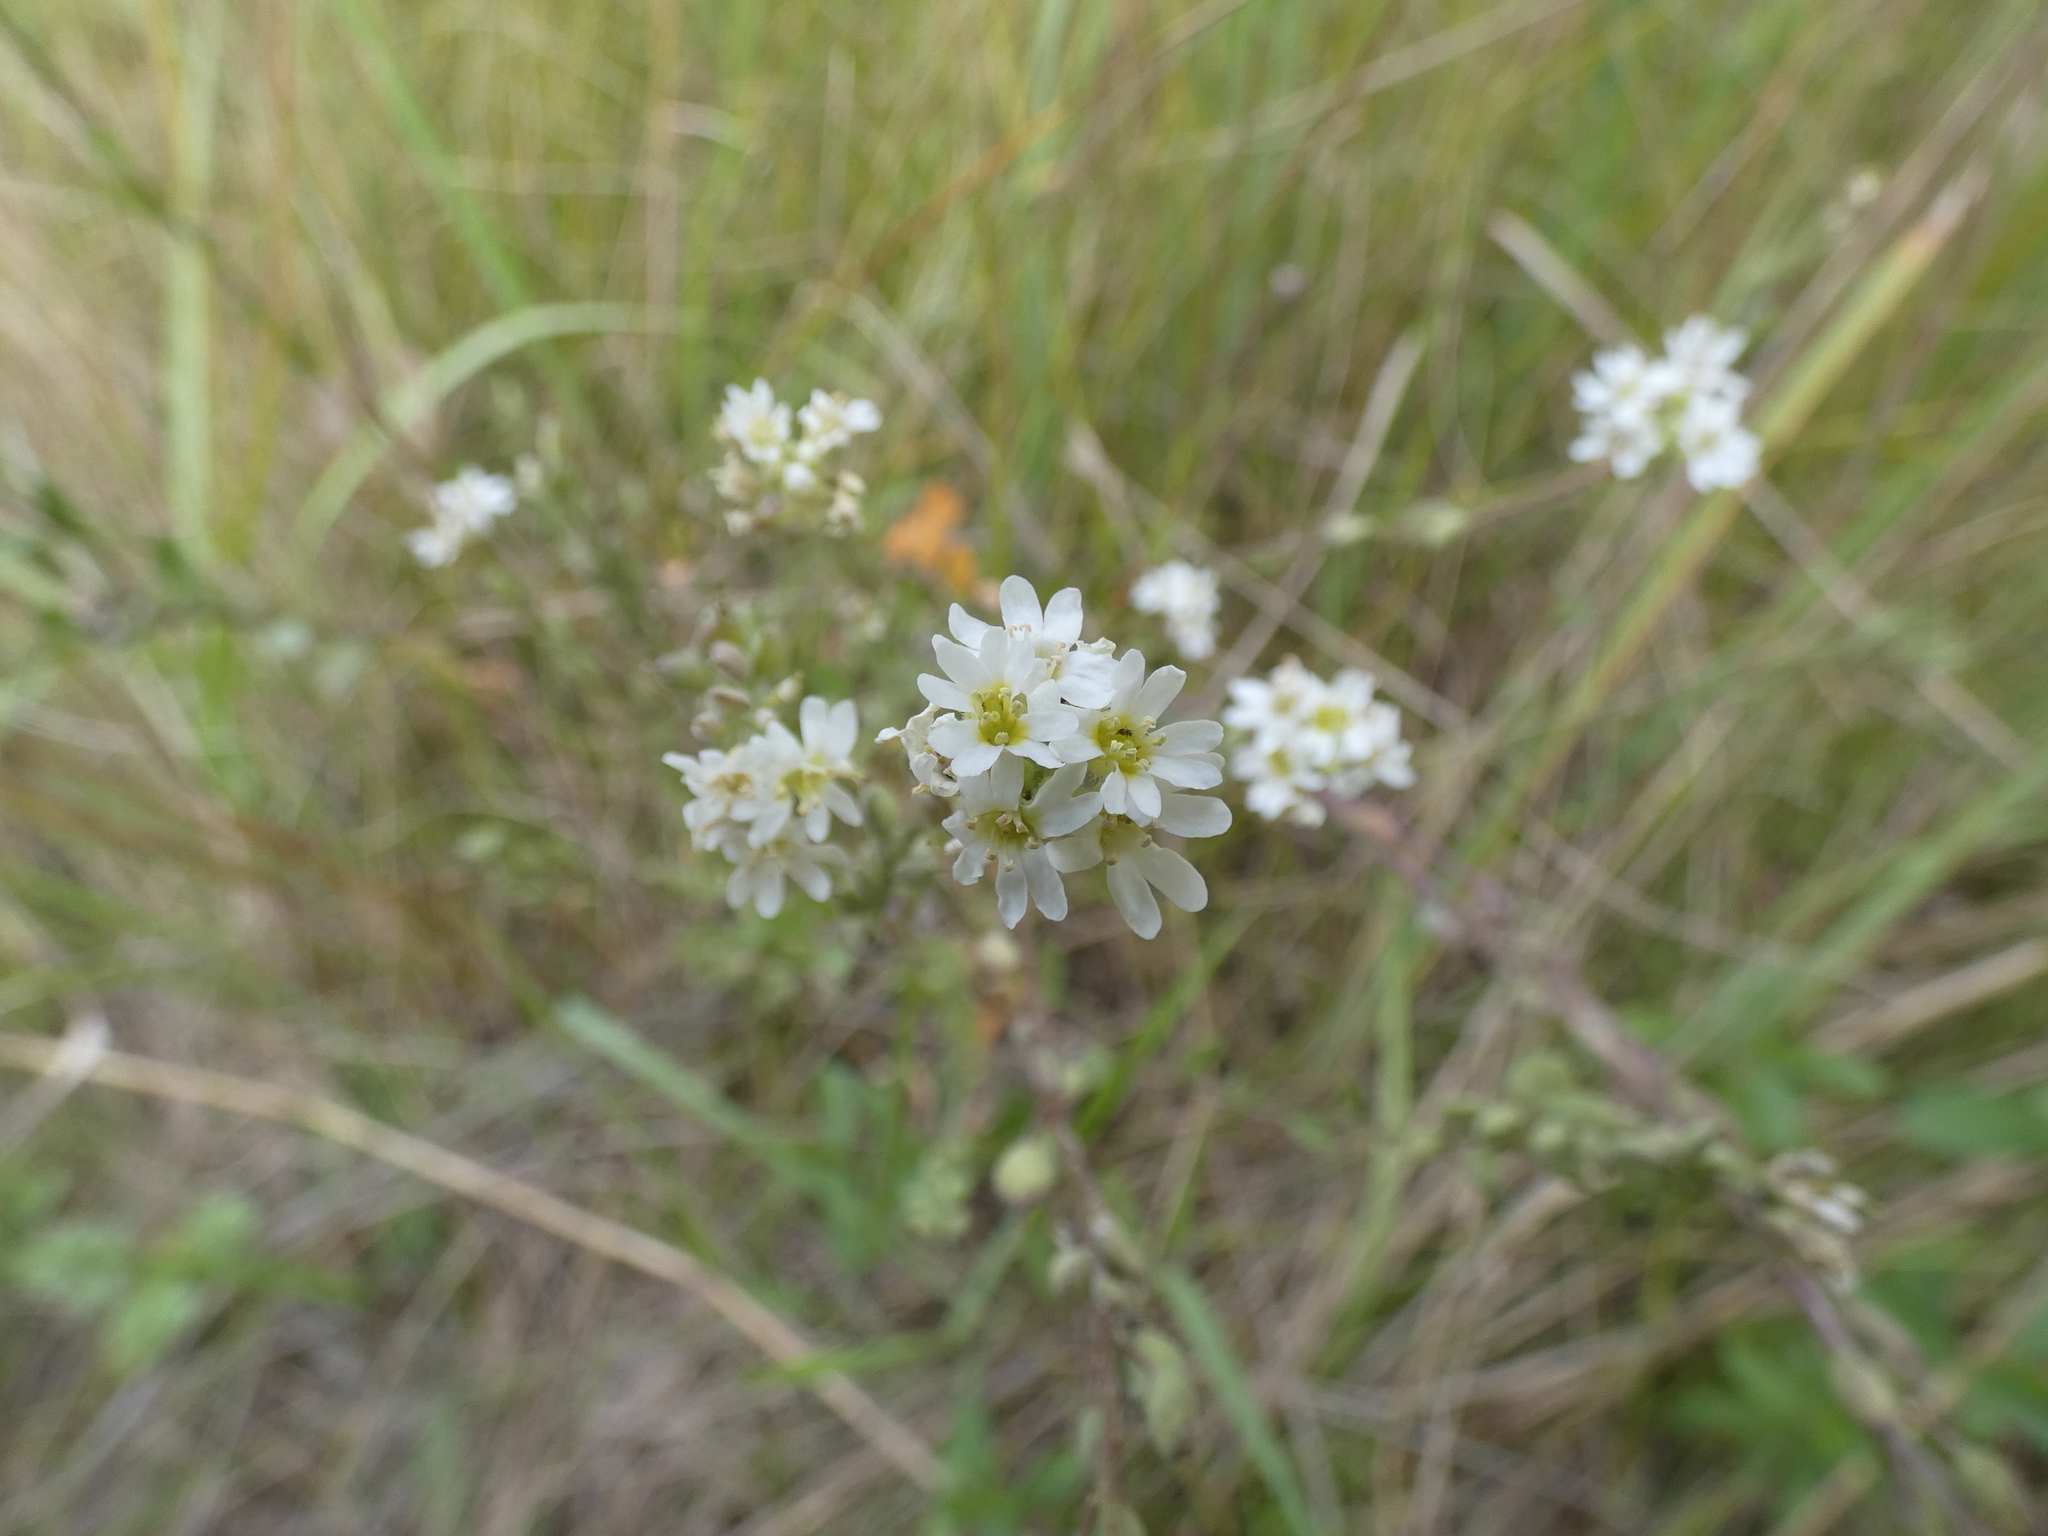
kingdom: Plantae
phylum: Tracheophyta
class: Magnoliopsida
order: Brassicales
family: Brassicaceae
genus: Berteroa
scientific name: Berteroa incana
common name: Hoary alison
